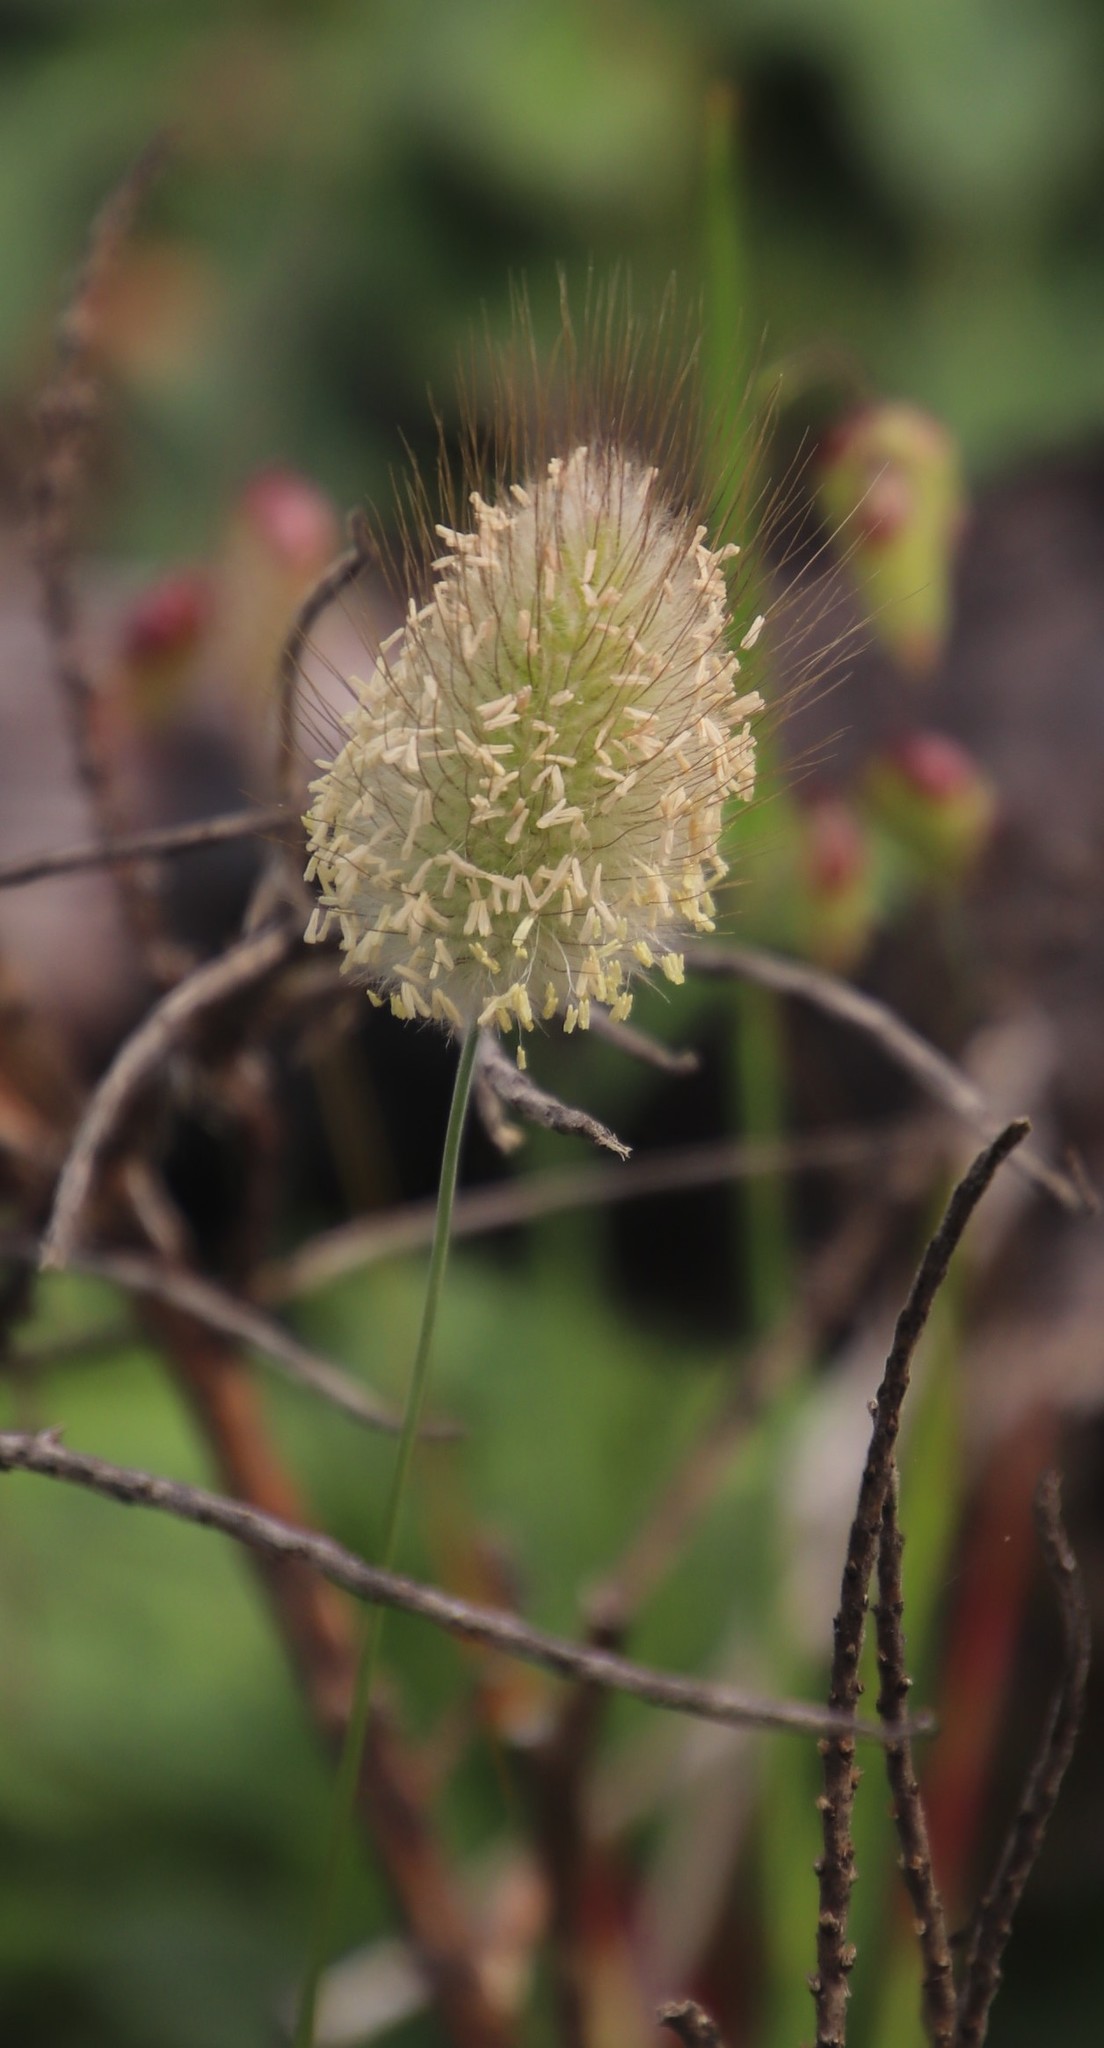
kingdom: Plantae
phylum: Tracheophyta
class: Liliopsida
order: Poales
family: Poaceae
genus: Lagurus
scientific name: Lagurus ovatus
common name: Hare's-tail
